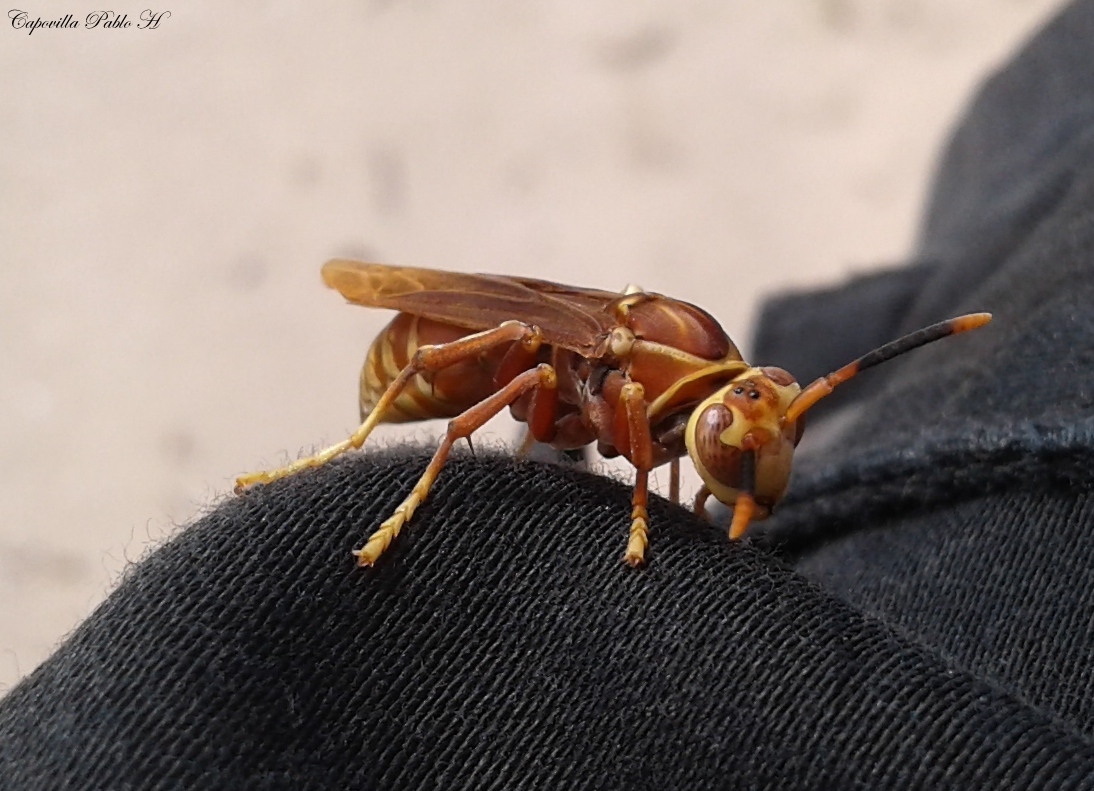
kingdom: Animalia
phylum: Arthropoda
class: Insecta
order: Hymenoptera
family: Eumenidae
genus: Polistes
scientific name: Polistes cavapyta
